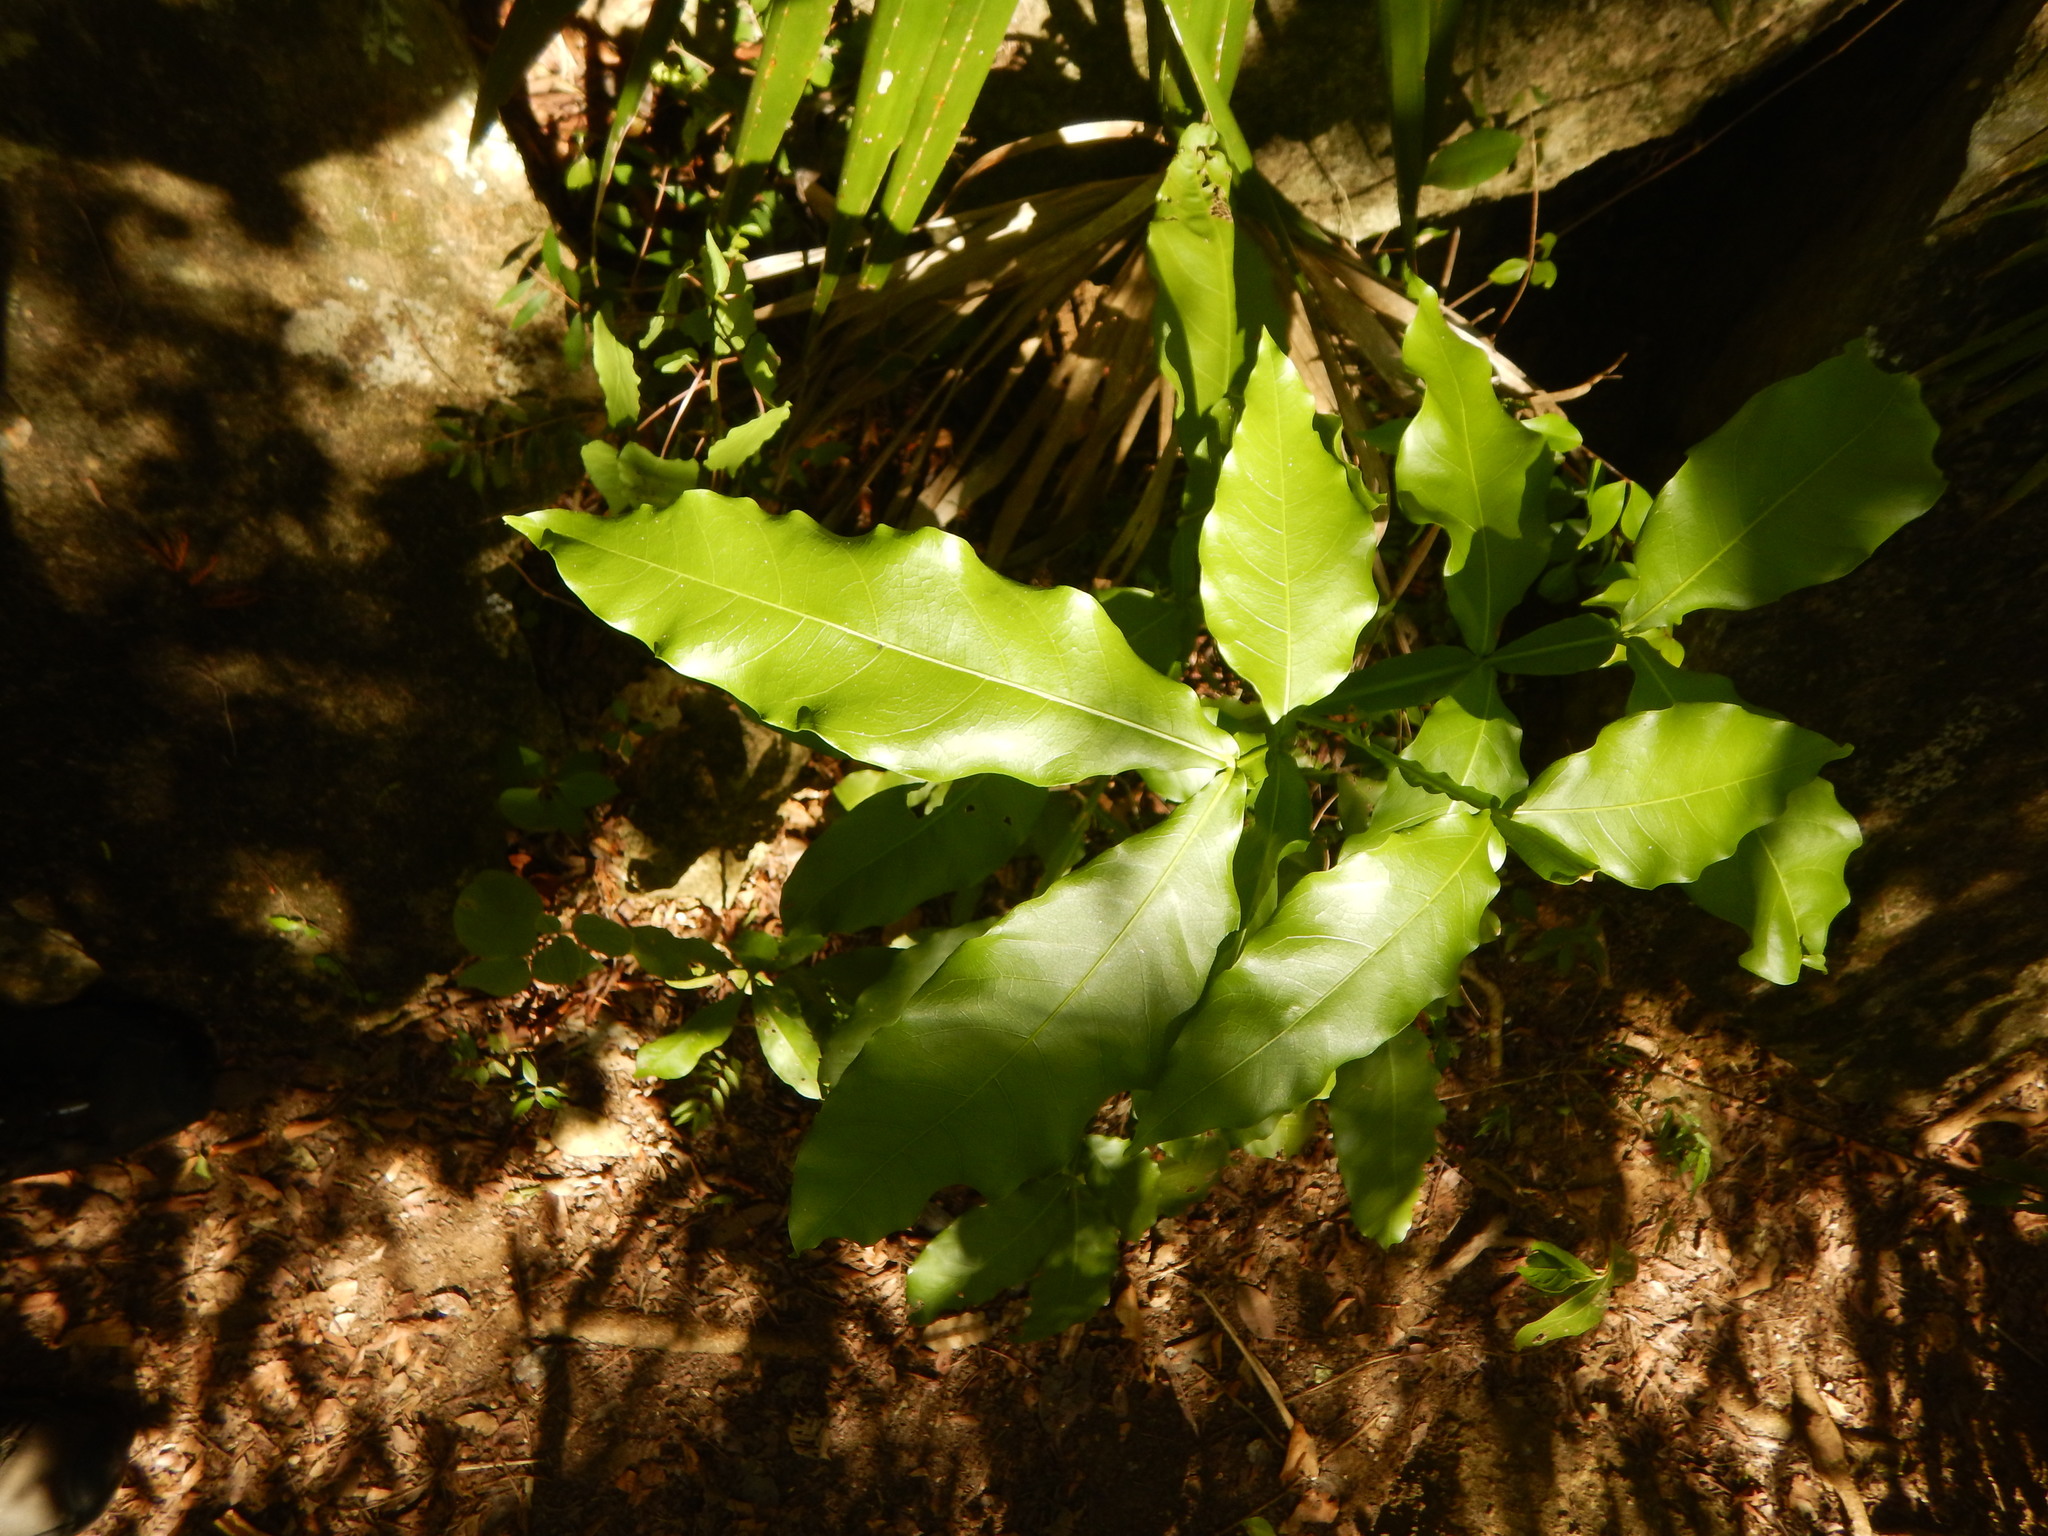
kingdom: Plantae
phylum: Tracheophyta
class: Magnoliopsida
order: Sapindales
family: Sapindaceae
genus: Melicoccus
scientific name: Melicoccus bijugatus
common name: Spanish lime
